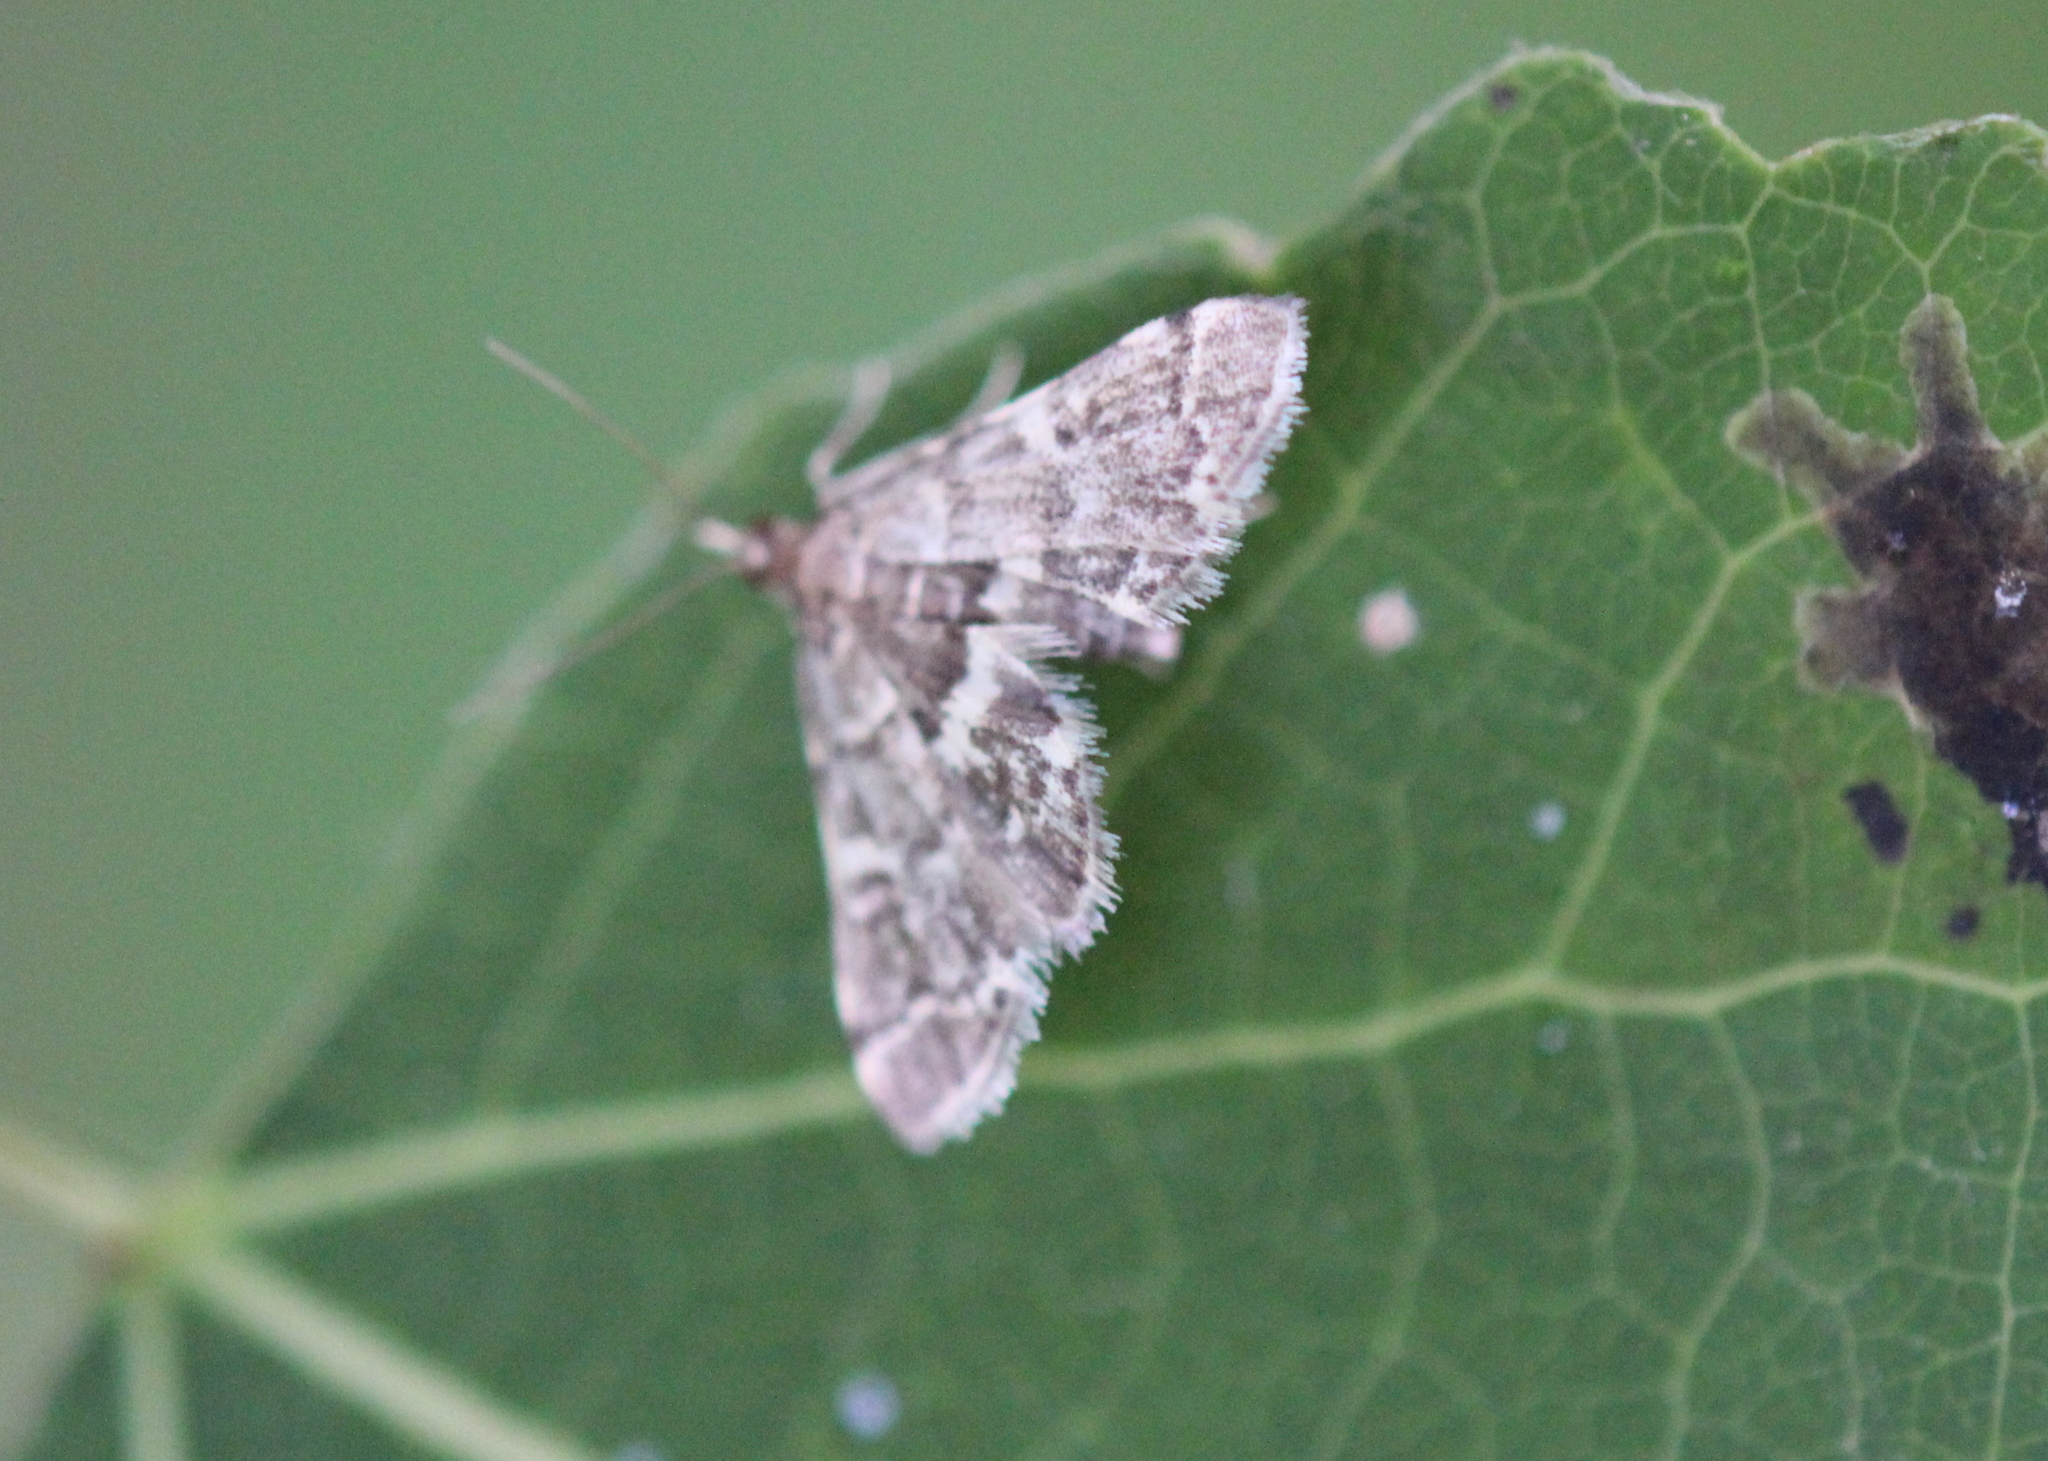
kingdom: Animalia
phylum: Arthropoda
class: Insecta
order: Lepidoptera
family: Crambidae
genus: Anageshna
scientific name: Anageshna primordialis
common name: Yellow-spotted webworm moth
